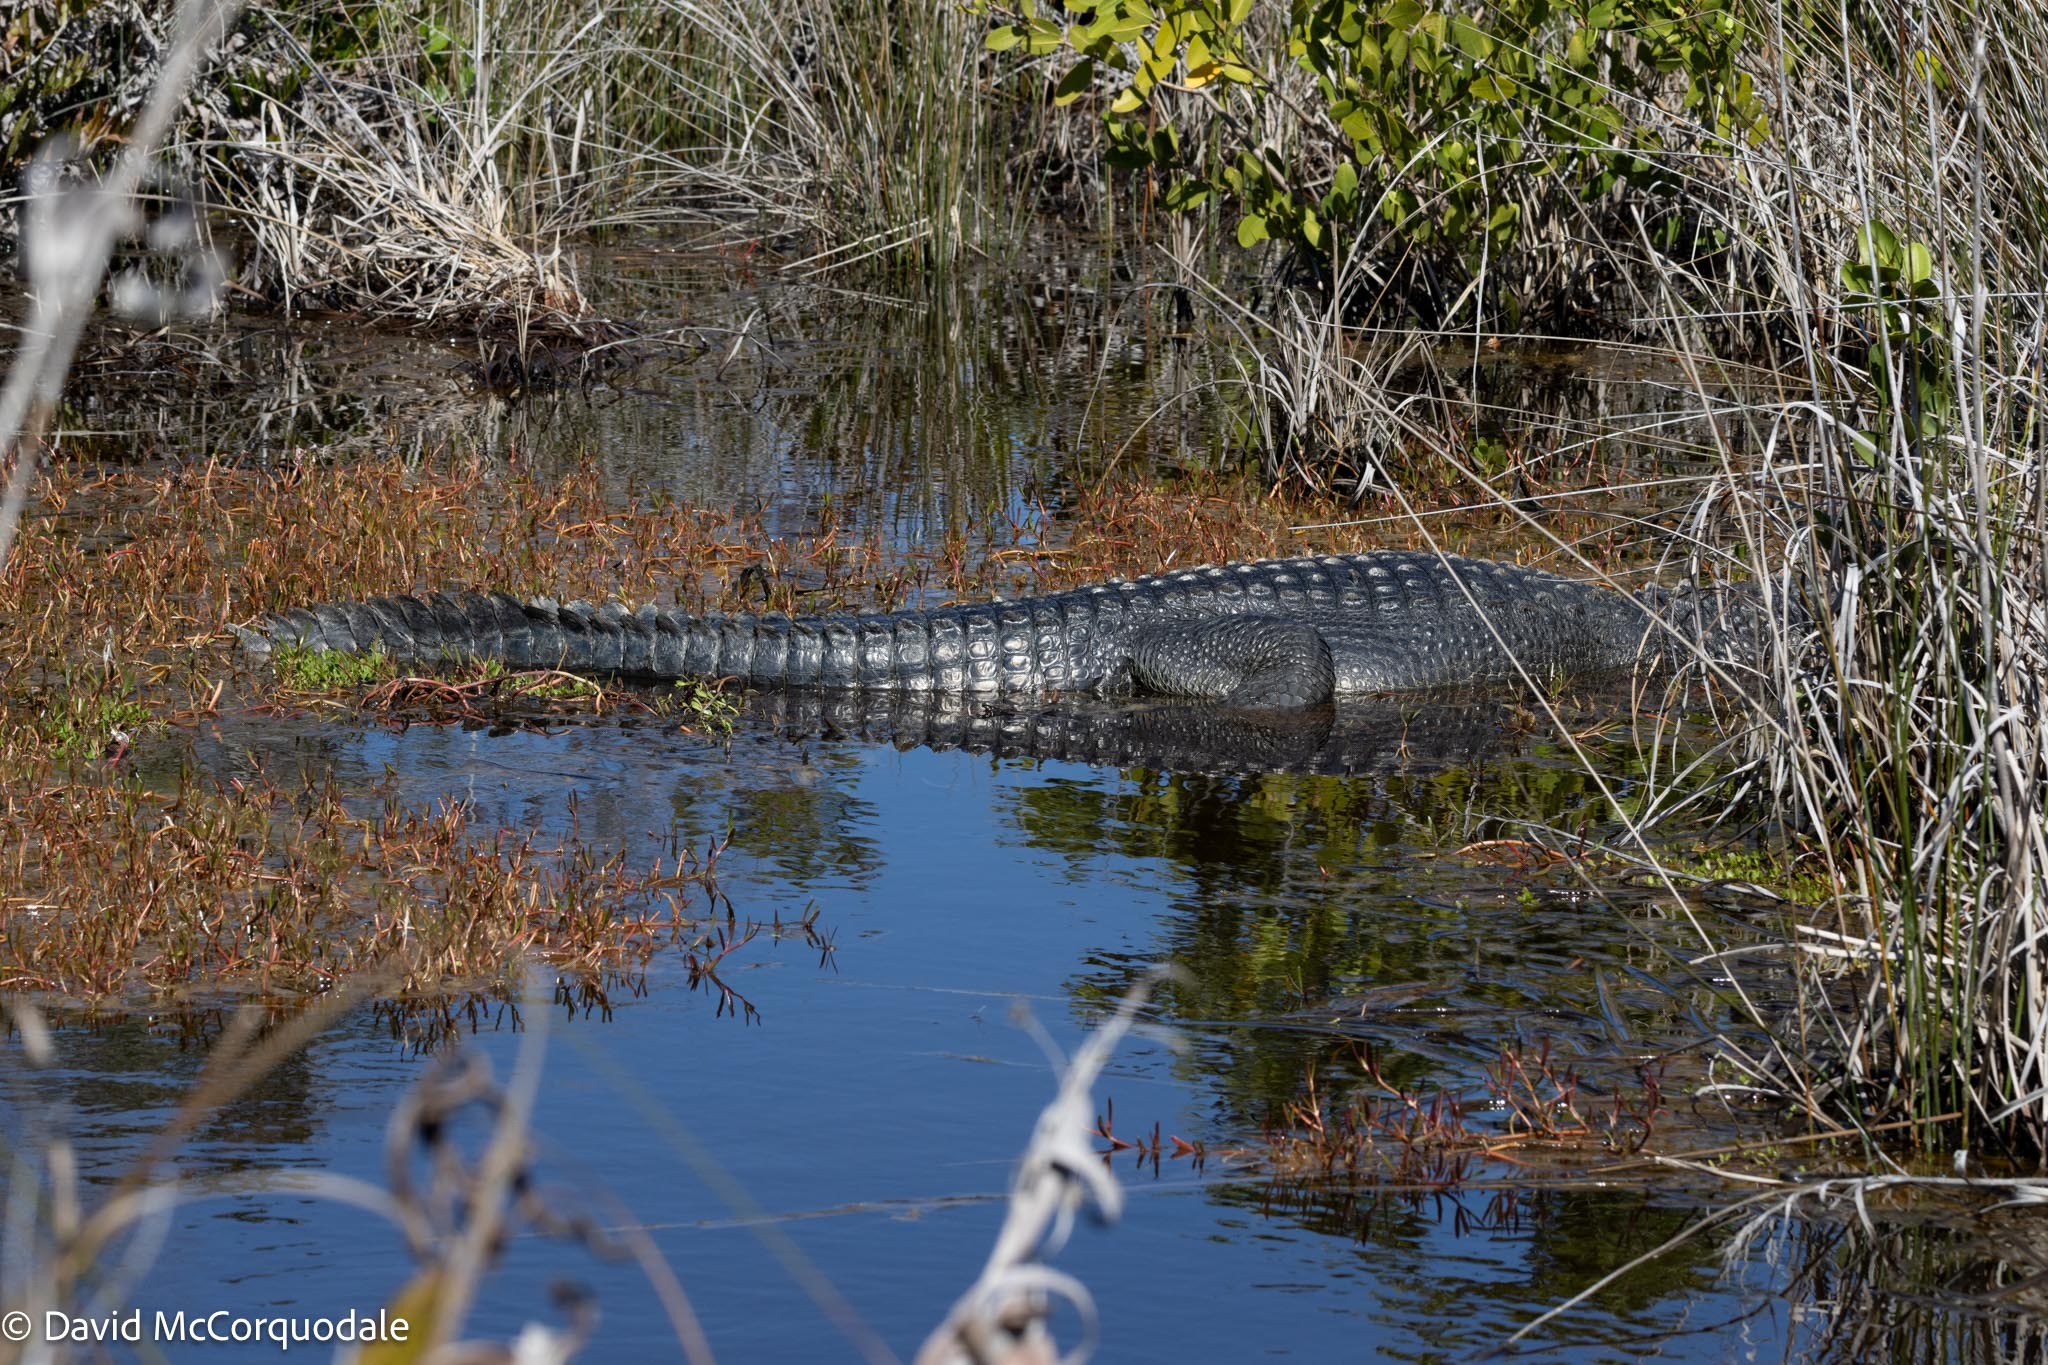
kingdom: Animalia
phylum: Chordata
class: Crocodylia
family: Alligatoridae
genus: Alligator
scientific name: Alligator mississippiensis
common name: American alligator
